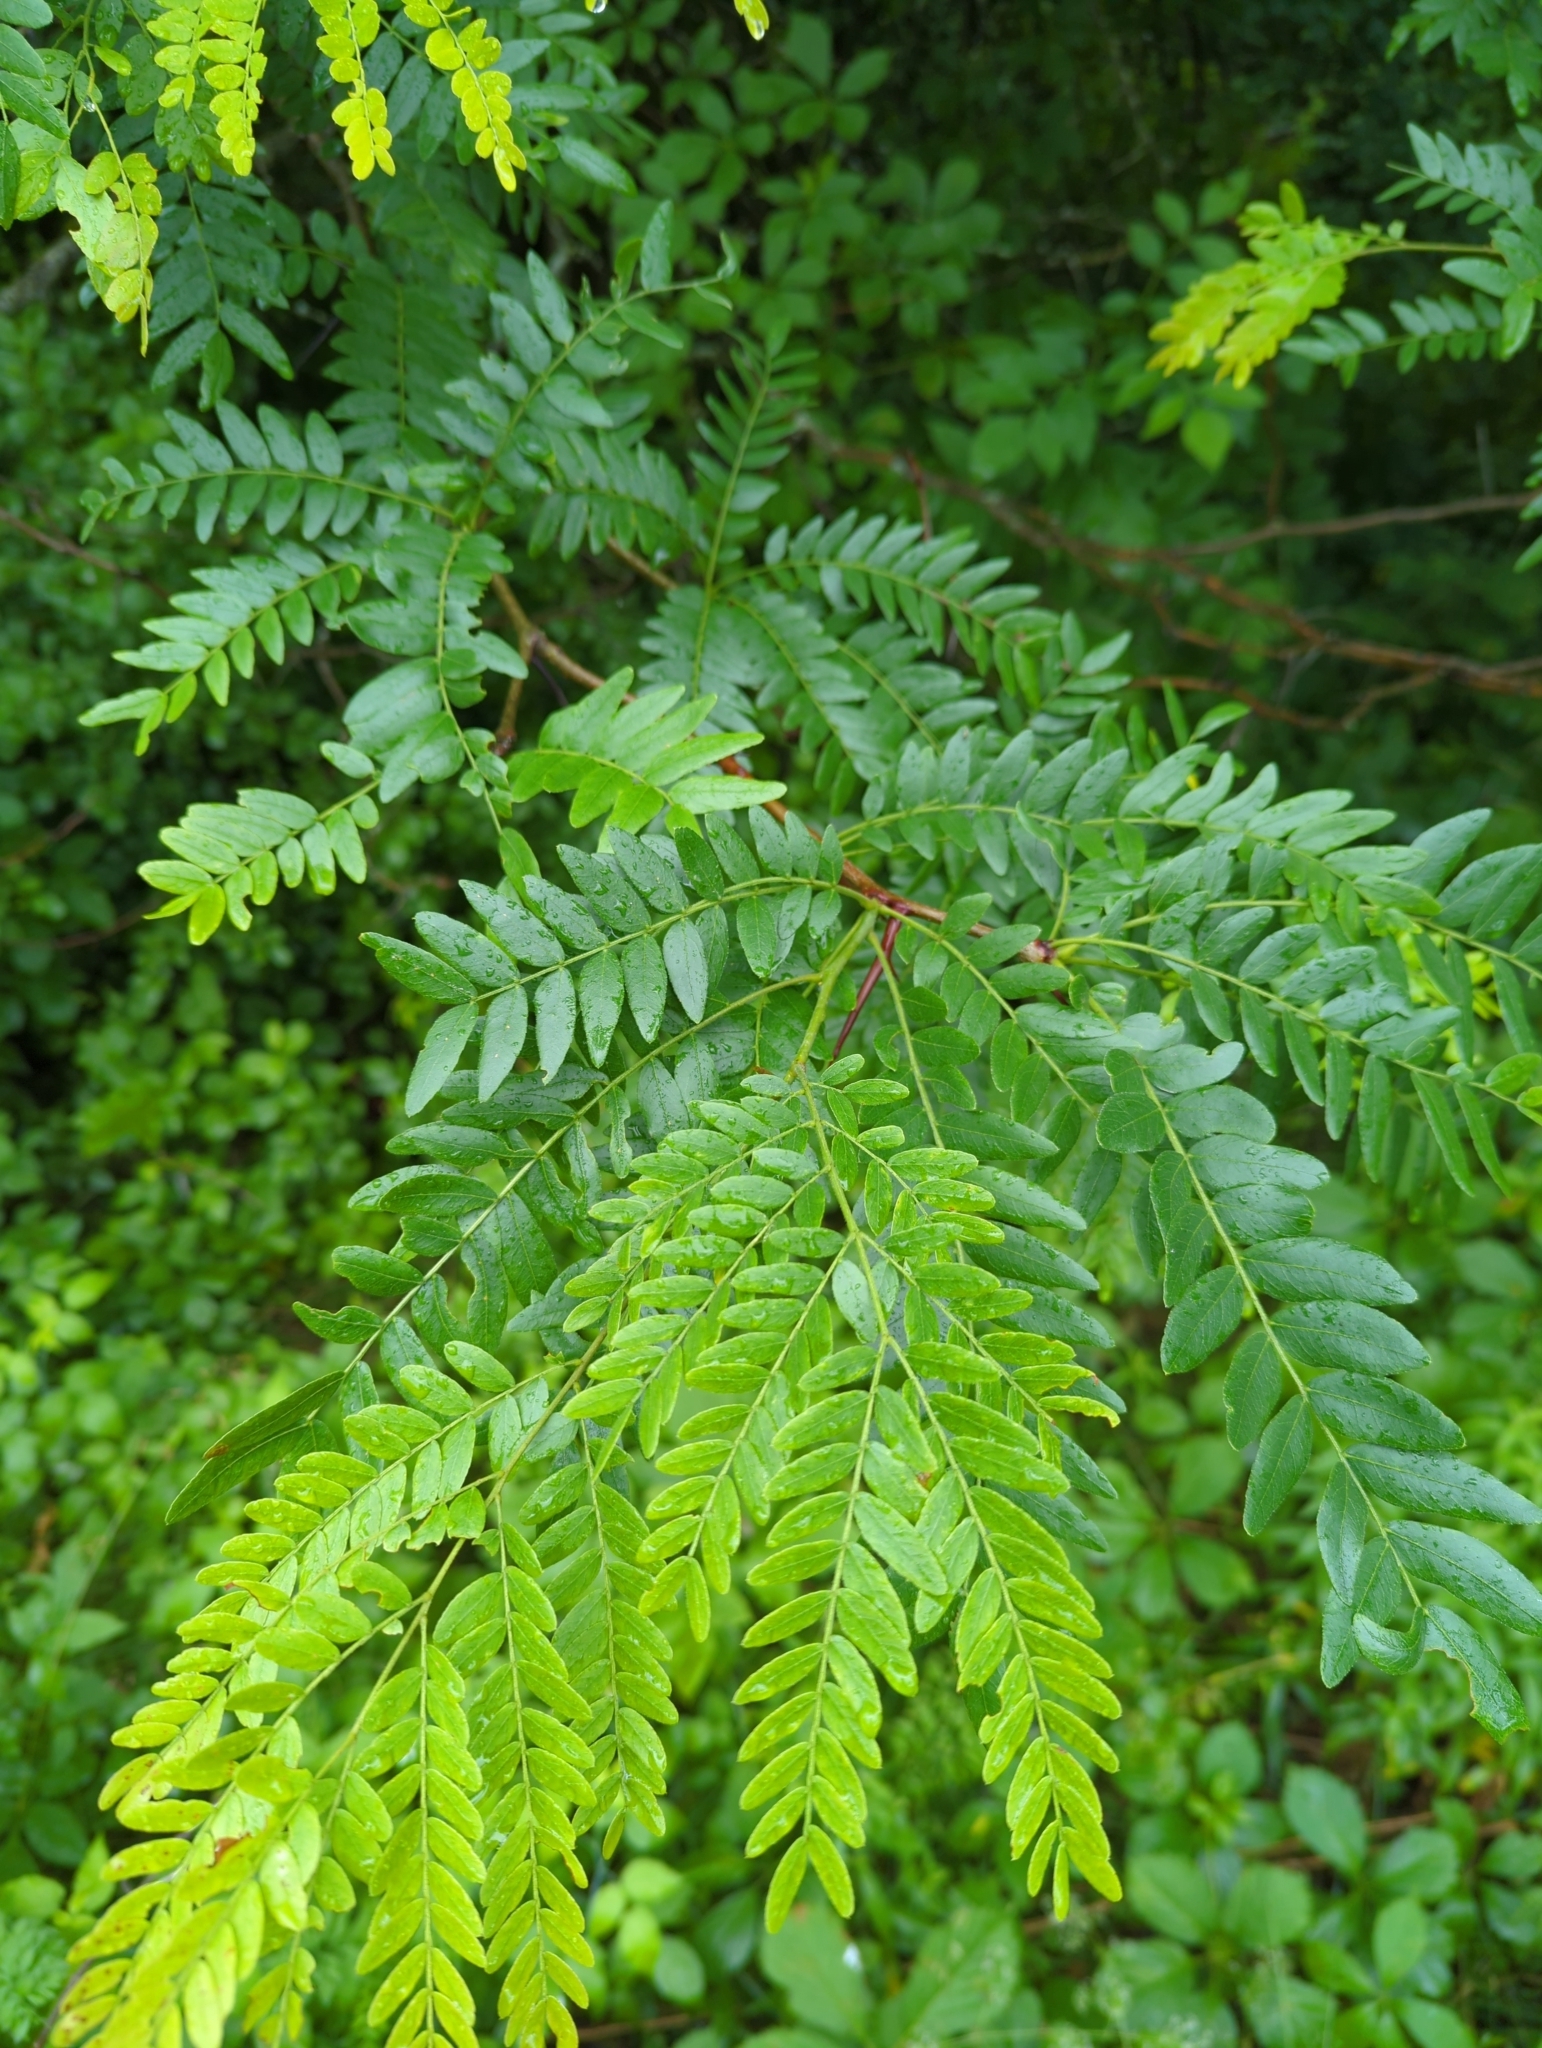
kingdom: Plantae
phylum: Tracheophyta
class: Magnoliopsida
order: Fabales
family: Fabaceae
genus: Gleditsia
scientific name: Gleditsia triacanthos
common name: Common honeylocust
